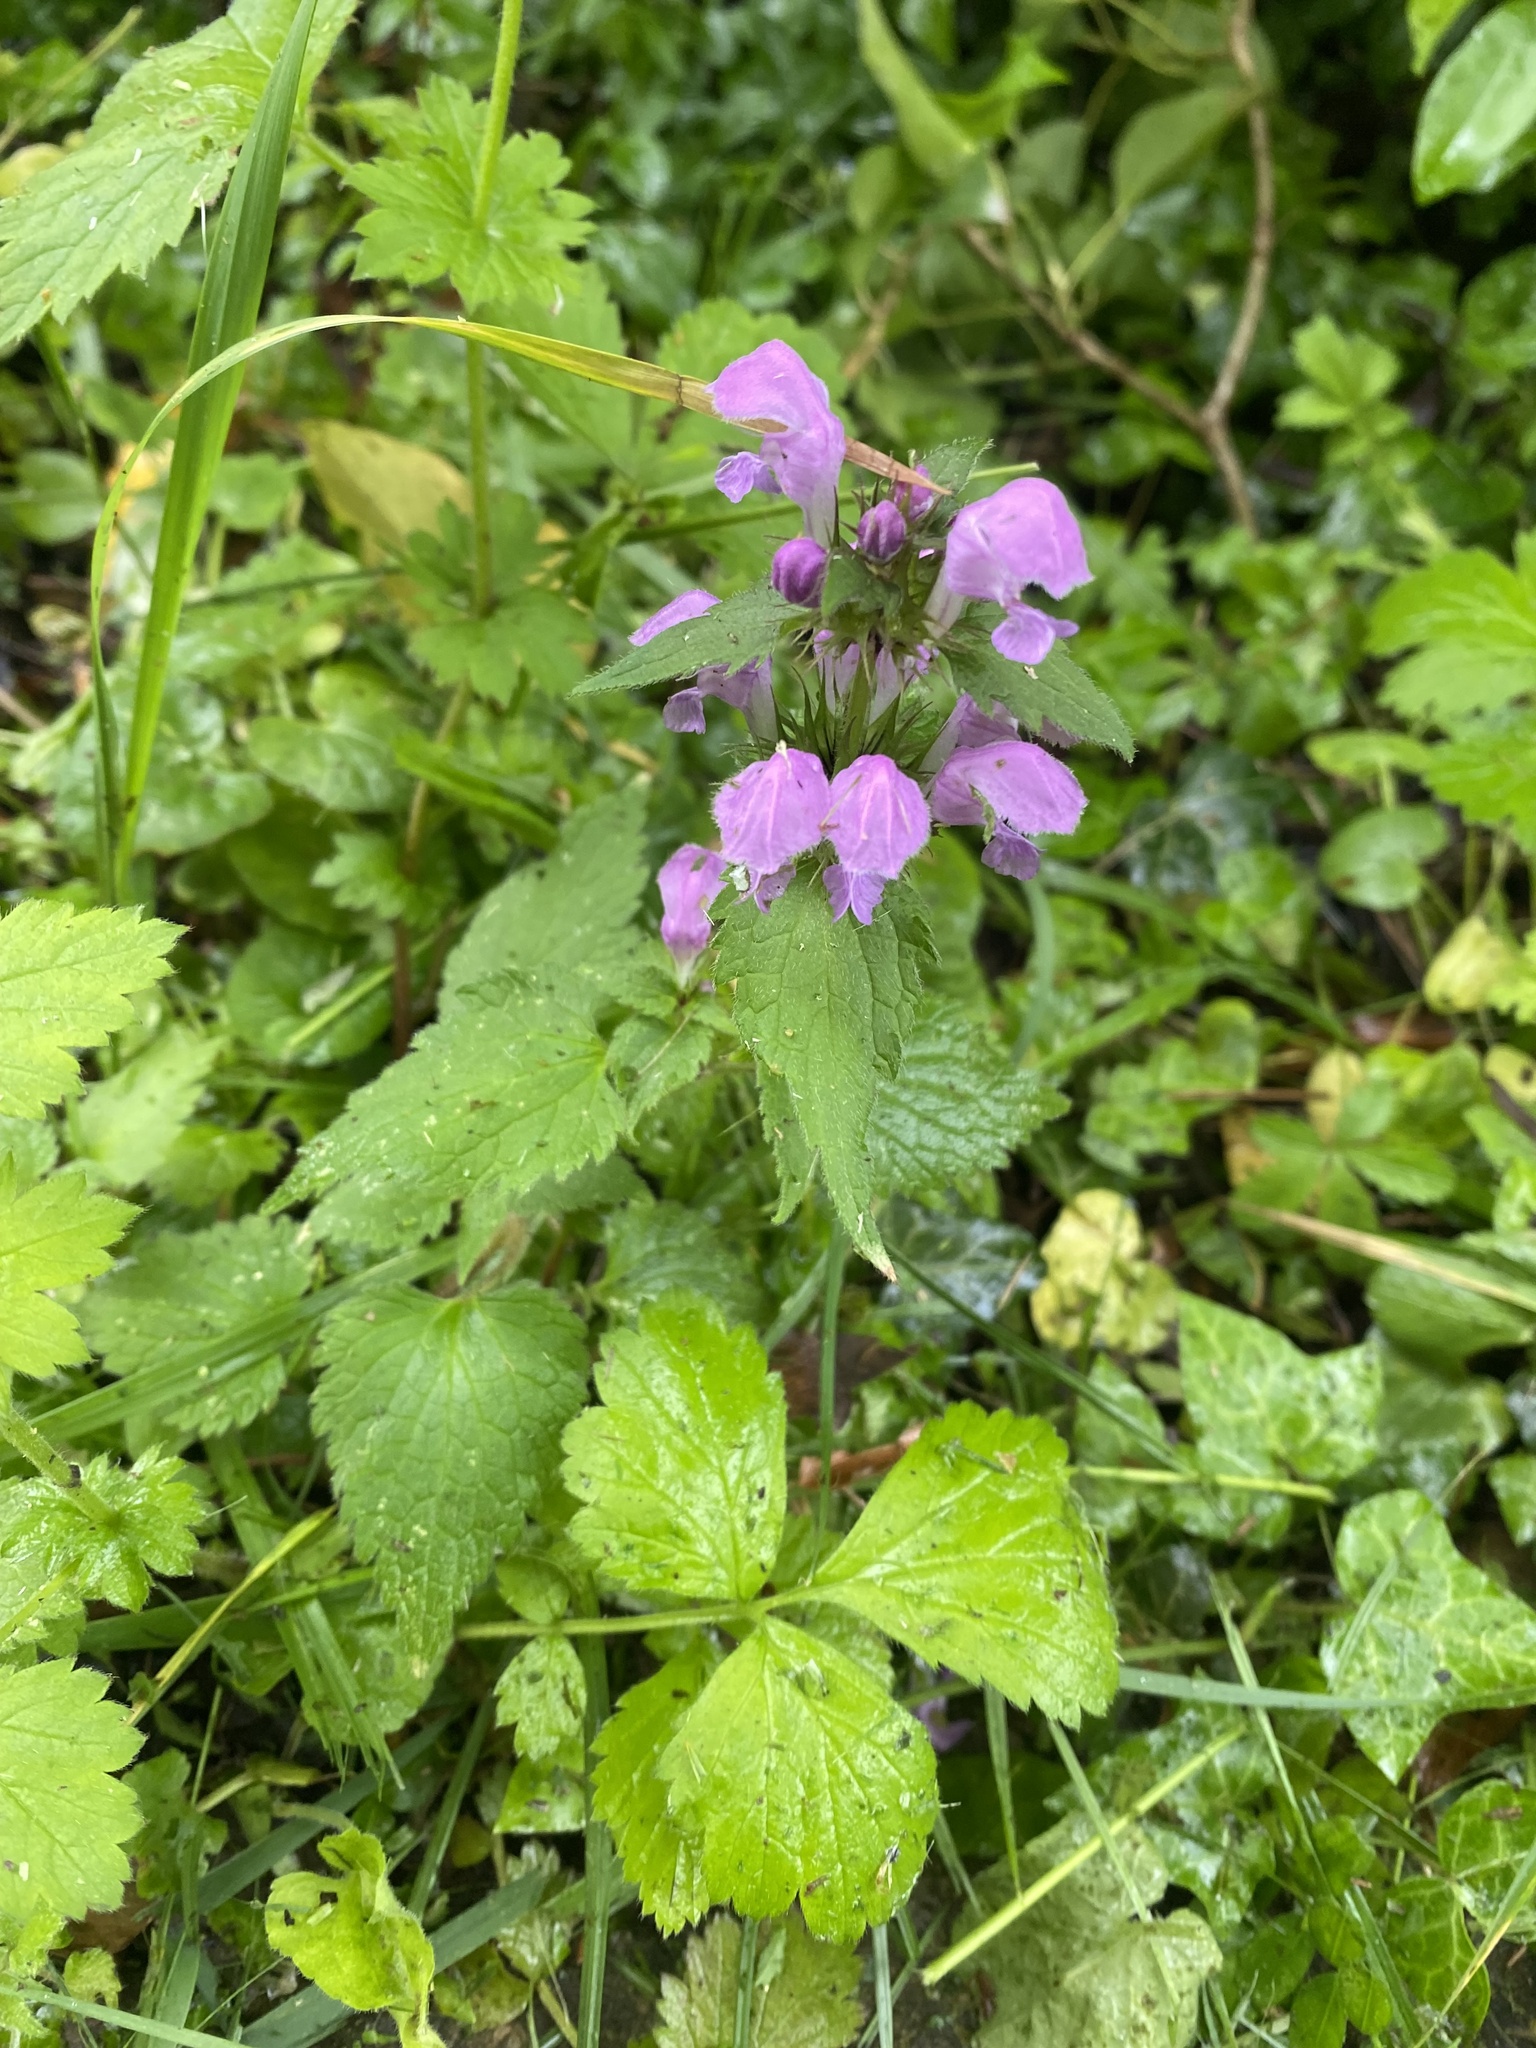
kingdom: Plantae
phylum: Tracheophyta
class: Magnoliopsida
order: Lamiales
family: Lamiaceae
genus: Lamium
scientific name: Lamium maculatum
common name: Spotted dead-nettle
